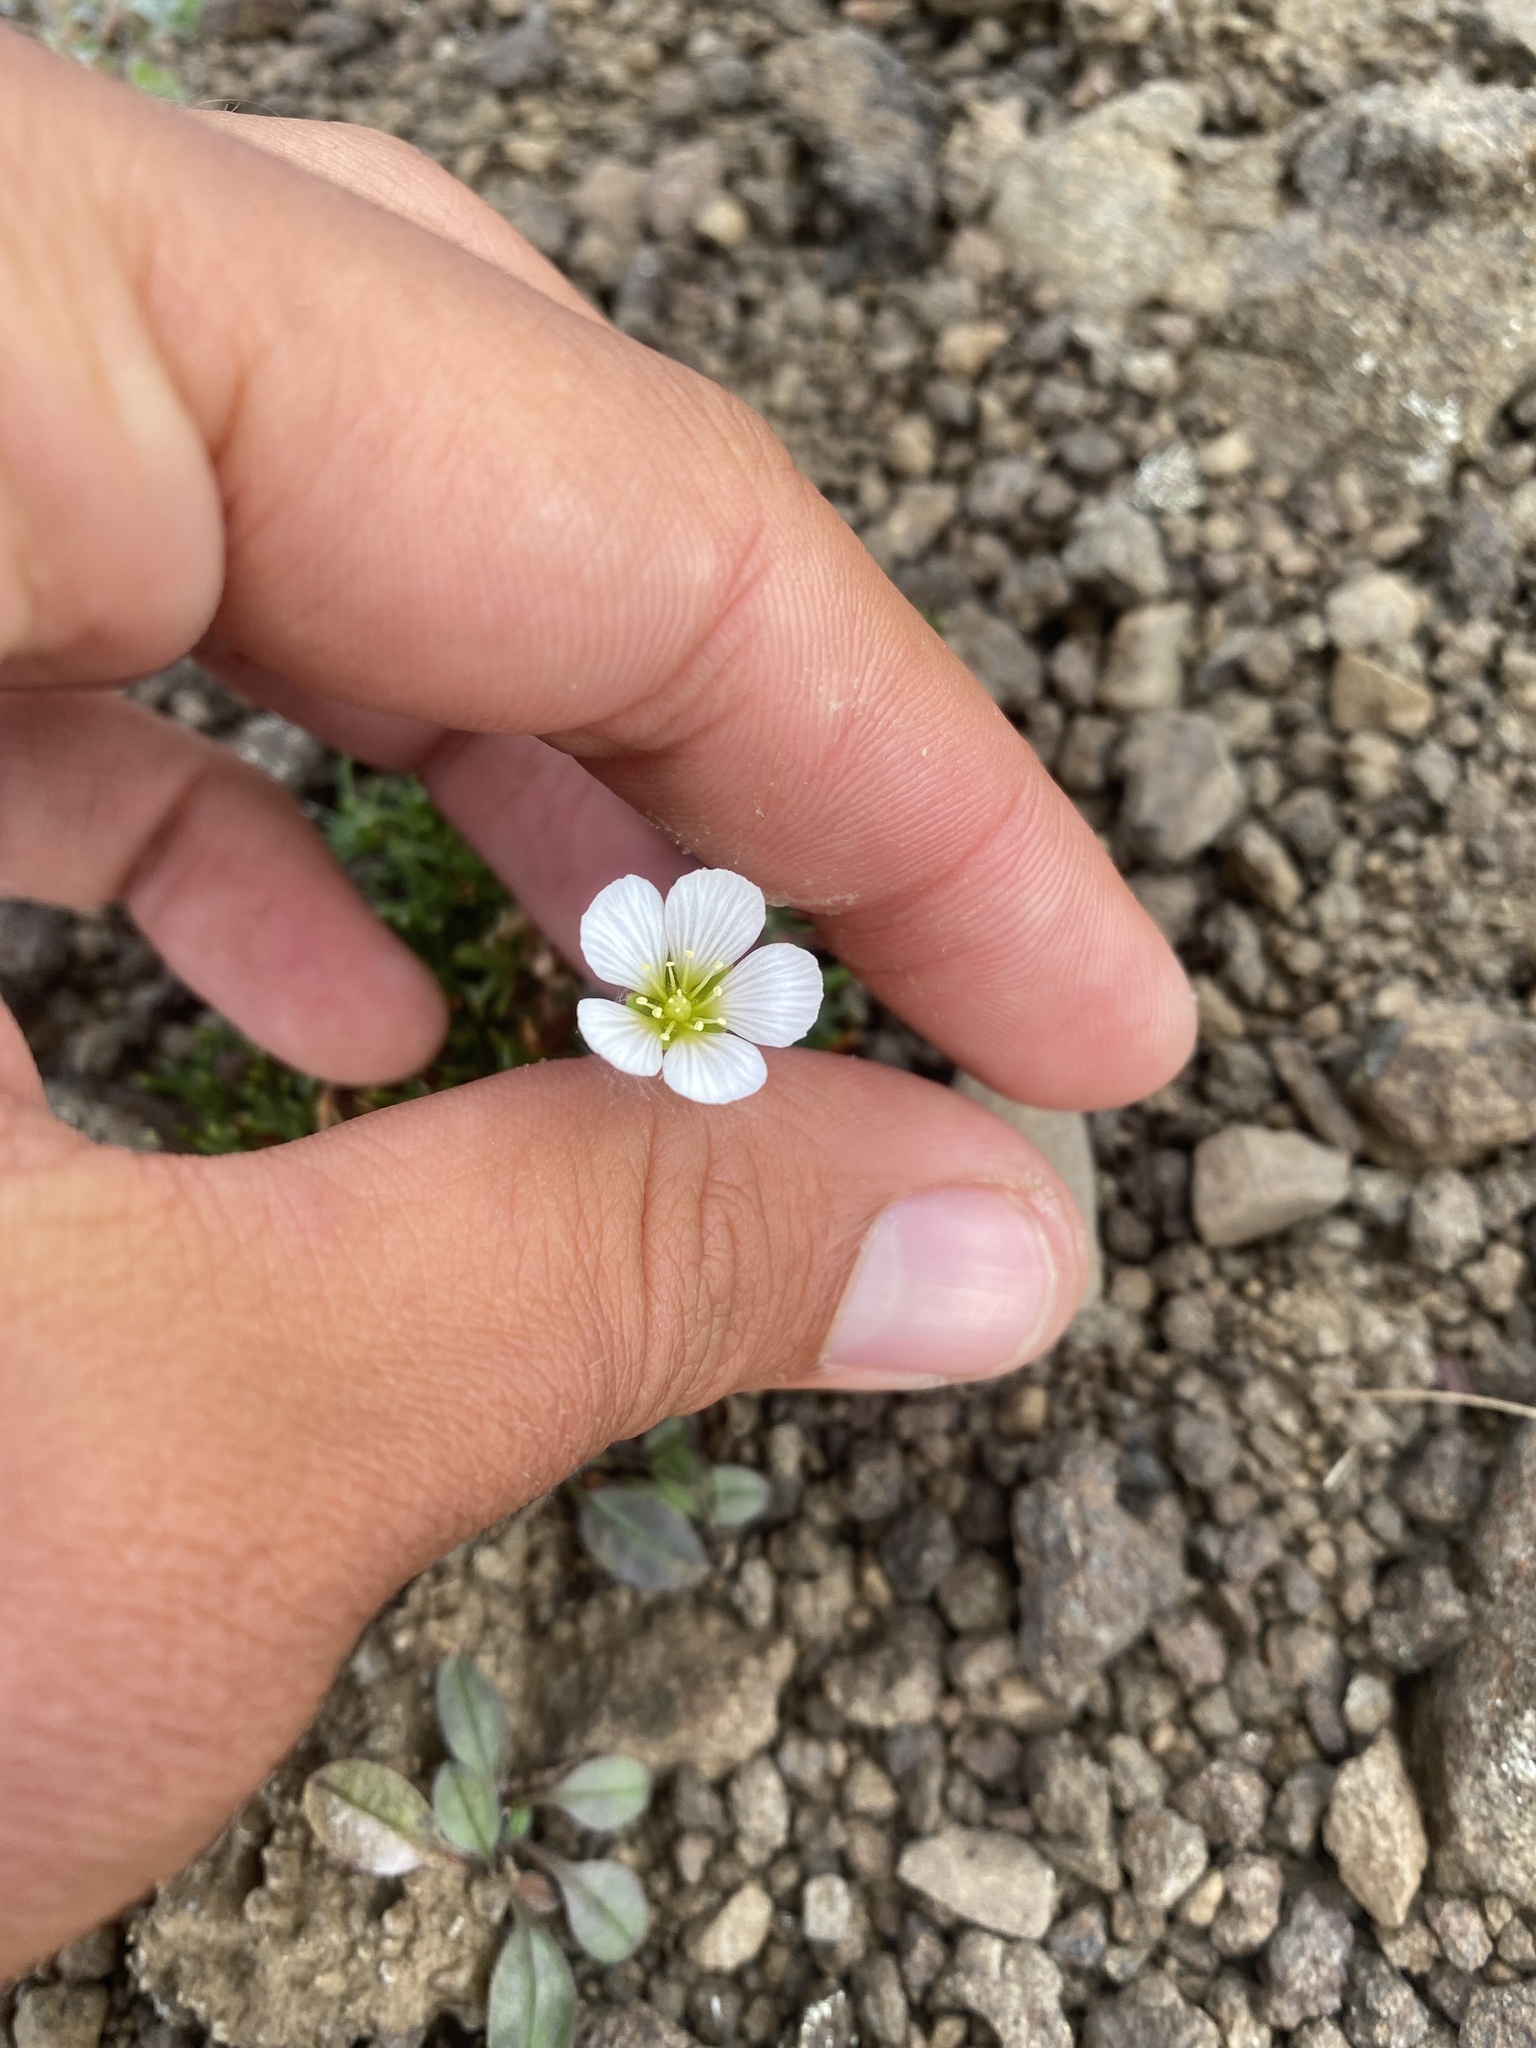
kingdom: Plantae
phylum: Tracheophyta
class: Magnoliopsida
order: Caryophyllales
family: Caryophyllaceae
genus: Cherleria
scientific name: Cherleria arctica
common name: Arctic sandwort
